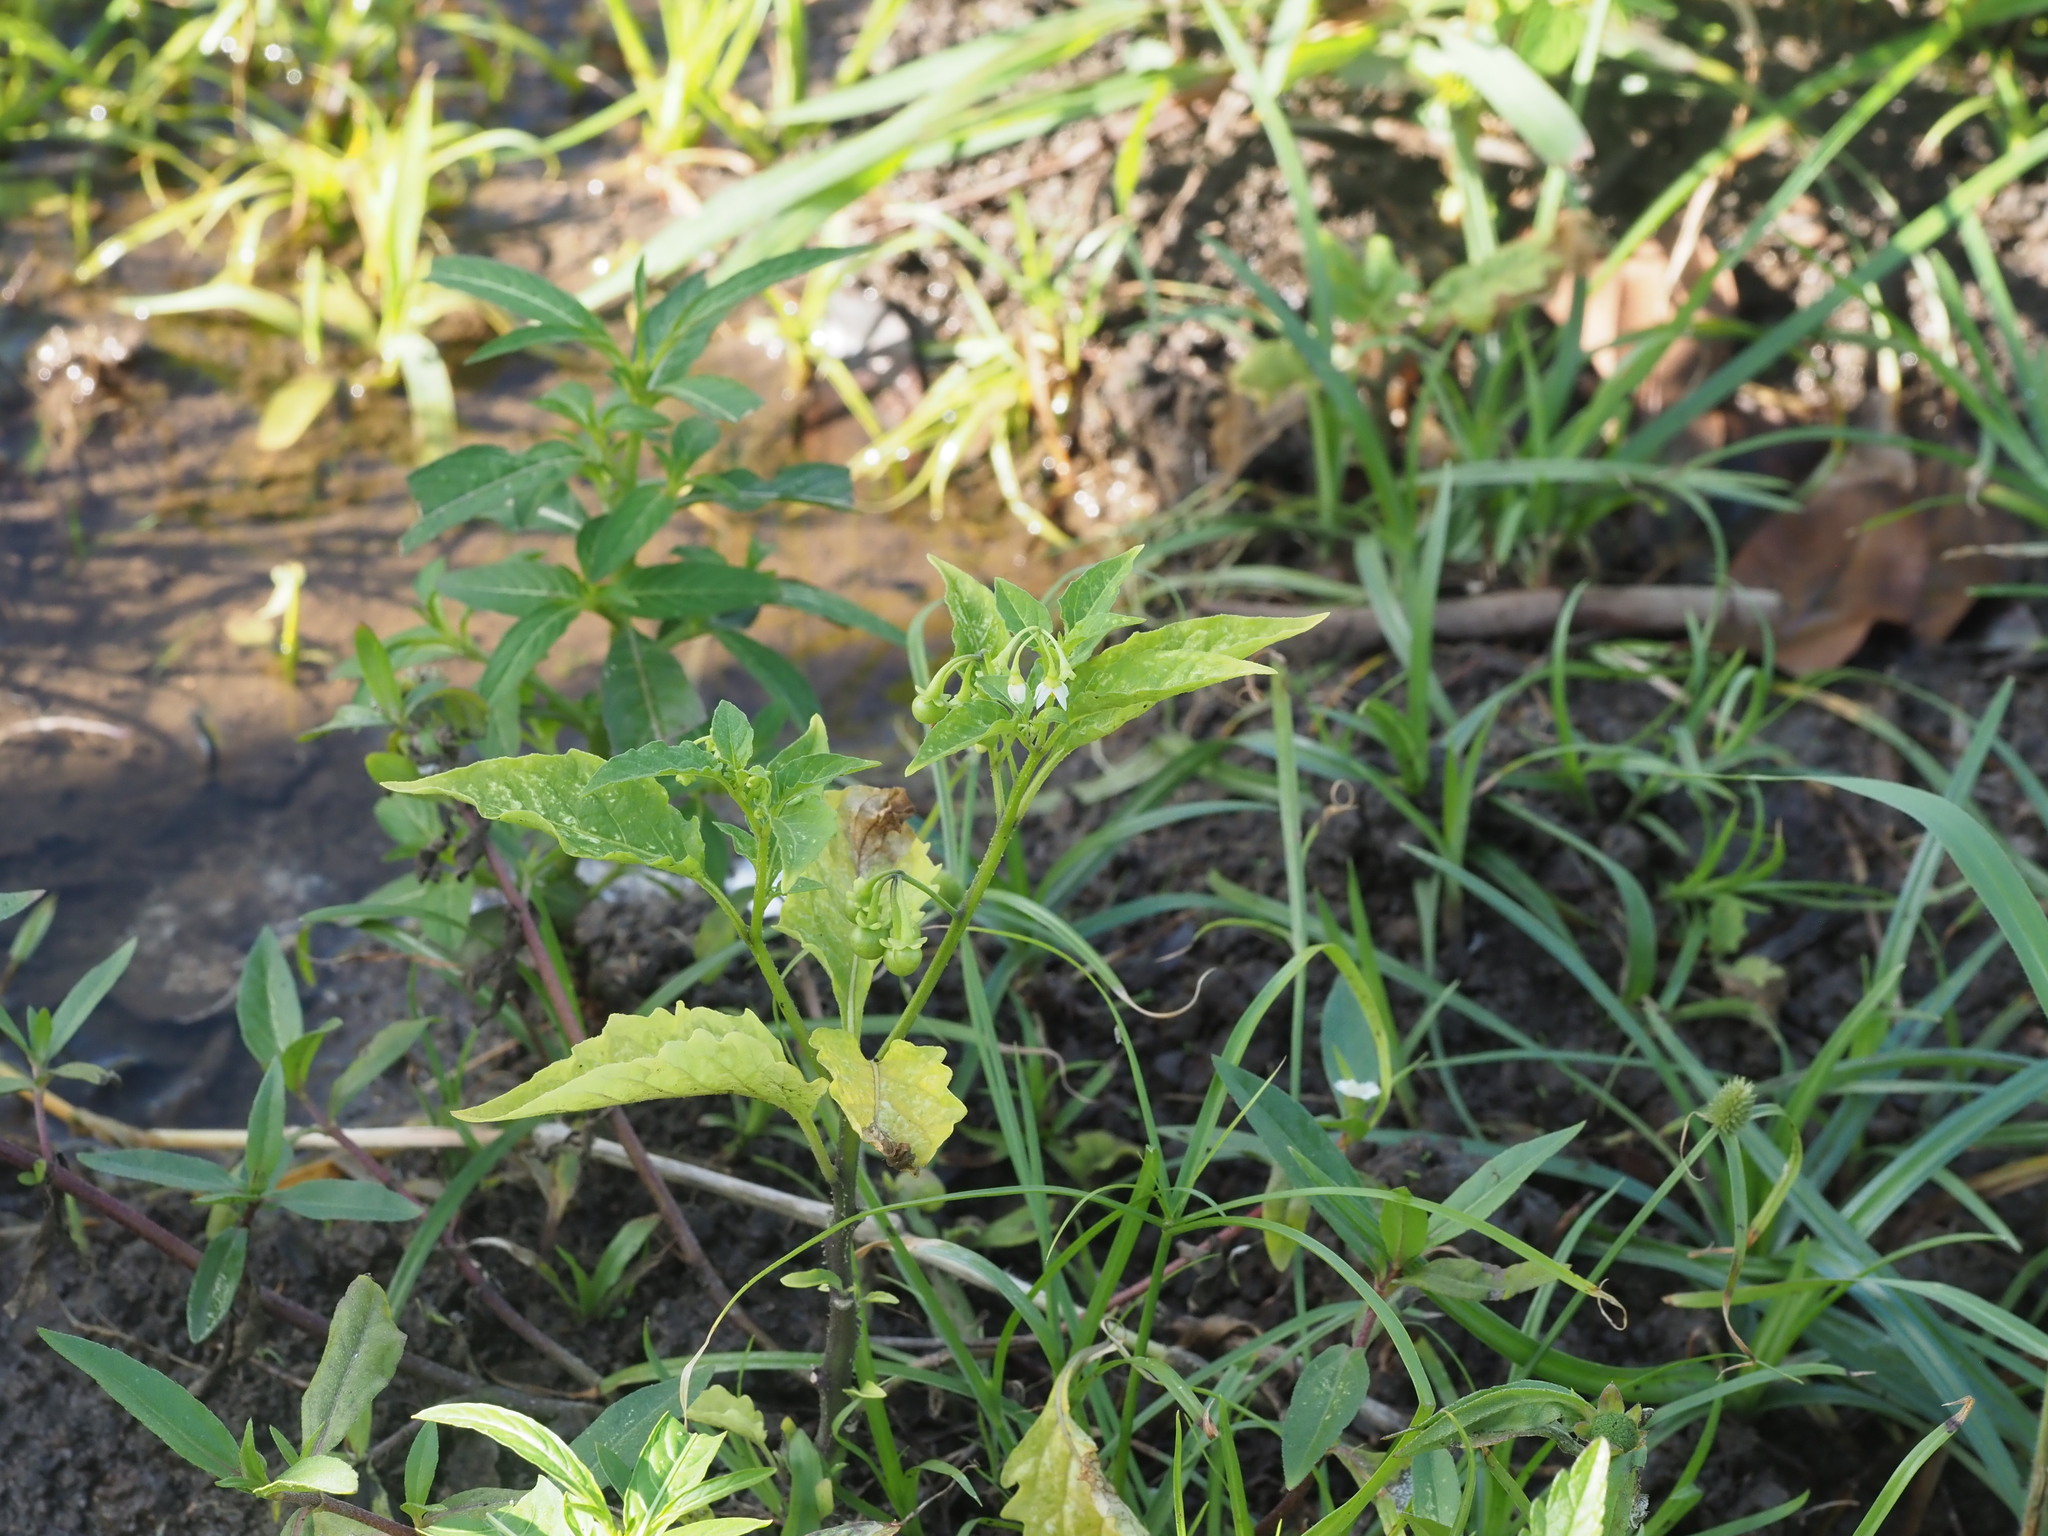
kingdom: Plantae
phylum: Tracheophyta
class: Magnoliopsida
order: Solanales
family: Solanaceae
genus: Solanum
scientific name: Solanum americanum
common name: American black nightshade
